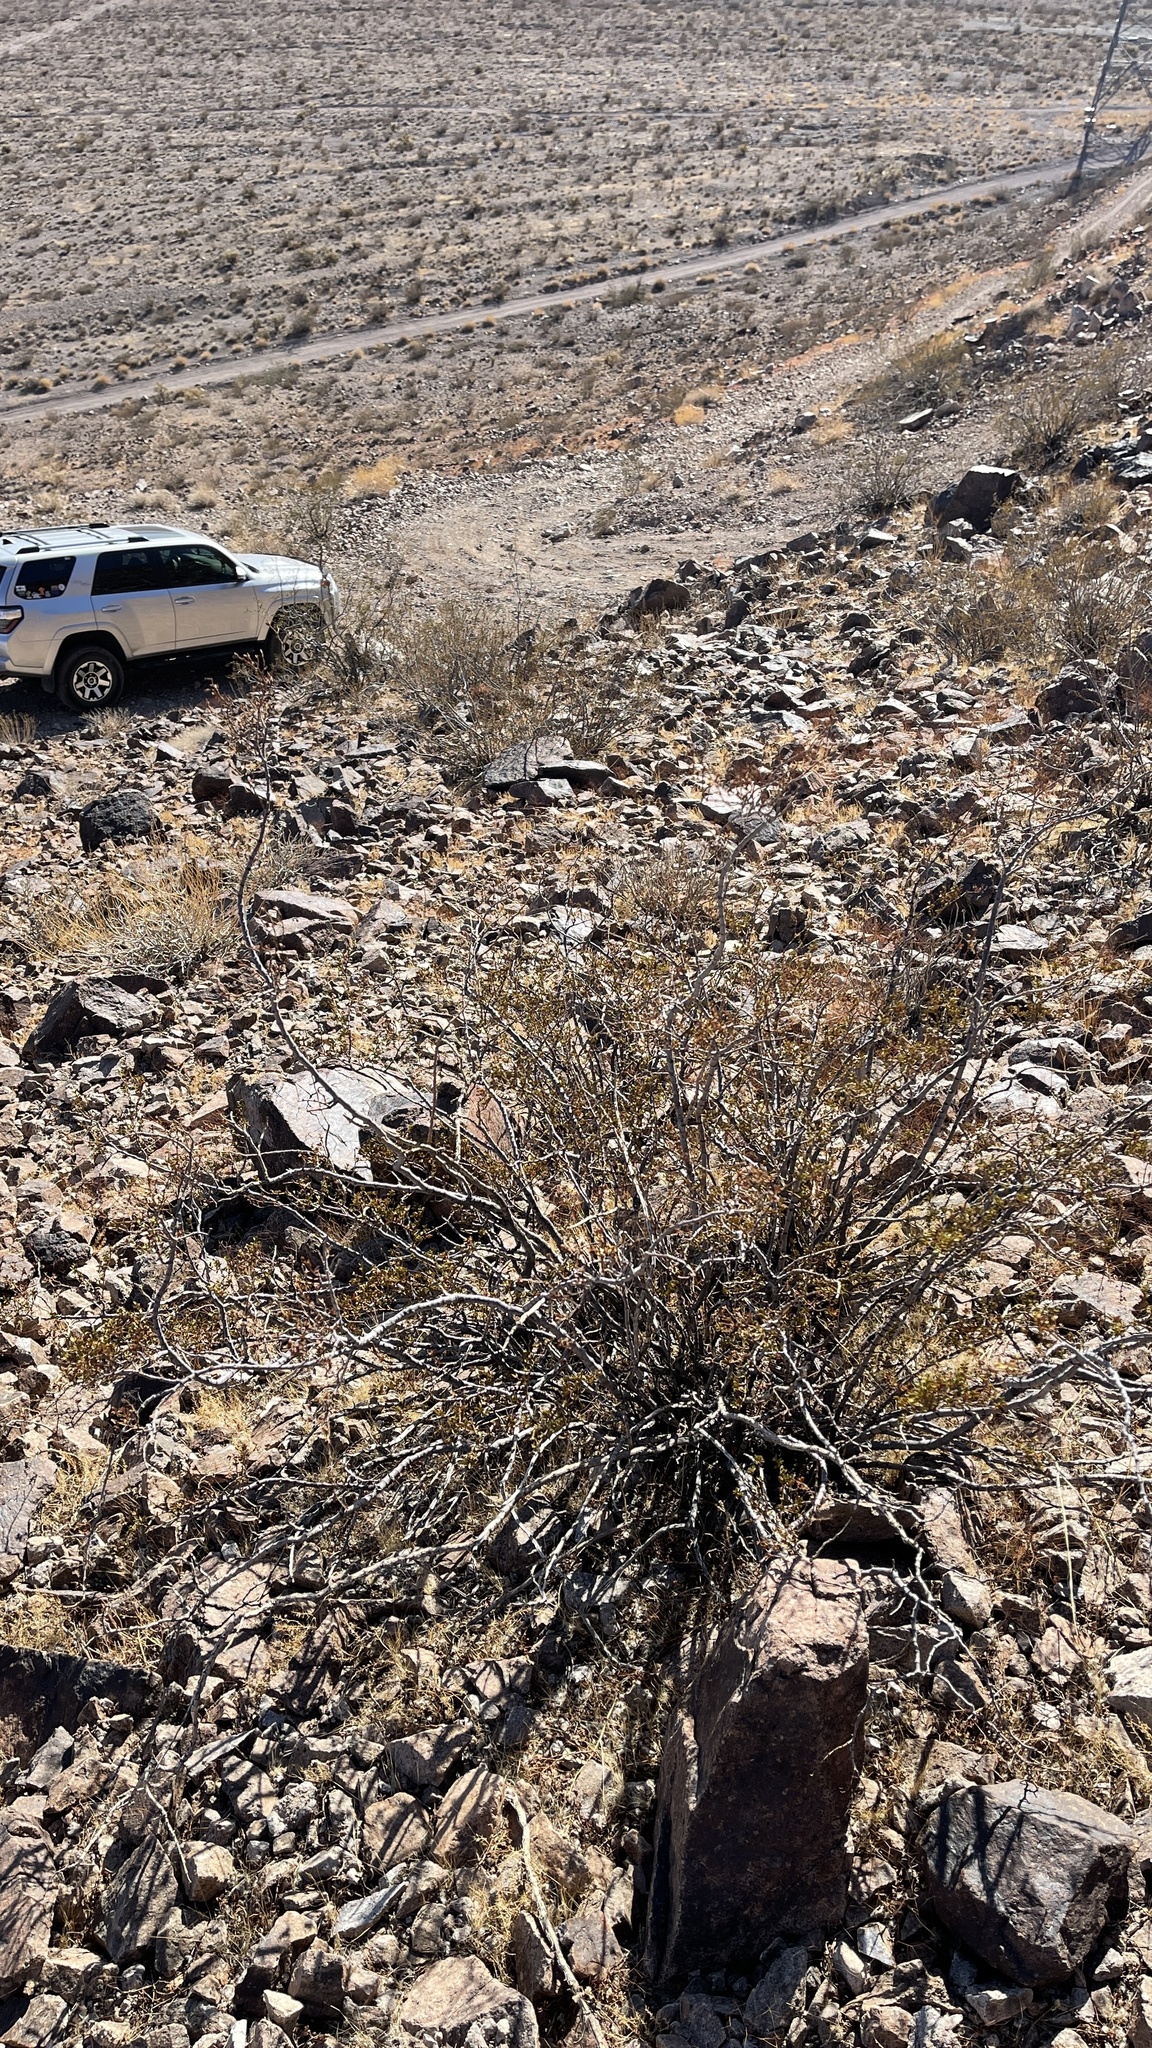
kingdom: Plantae
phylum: Tracheophyta
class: Magnoliopsida
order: Zygophyllales
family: Zygophyllaceae
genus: Larrea
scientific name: Larrea tridentata
